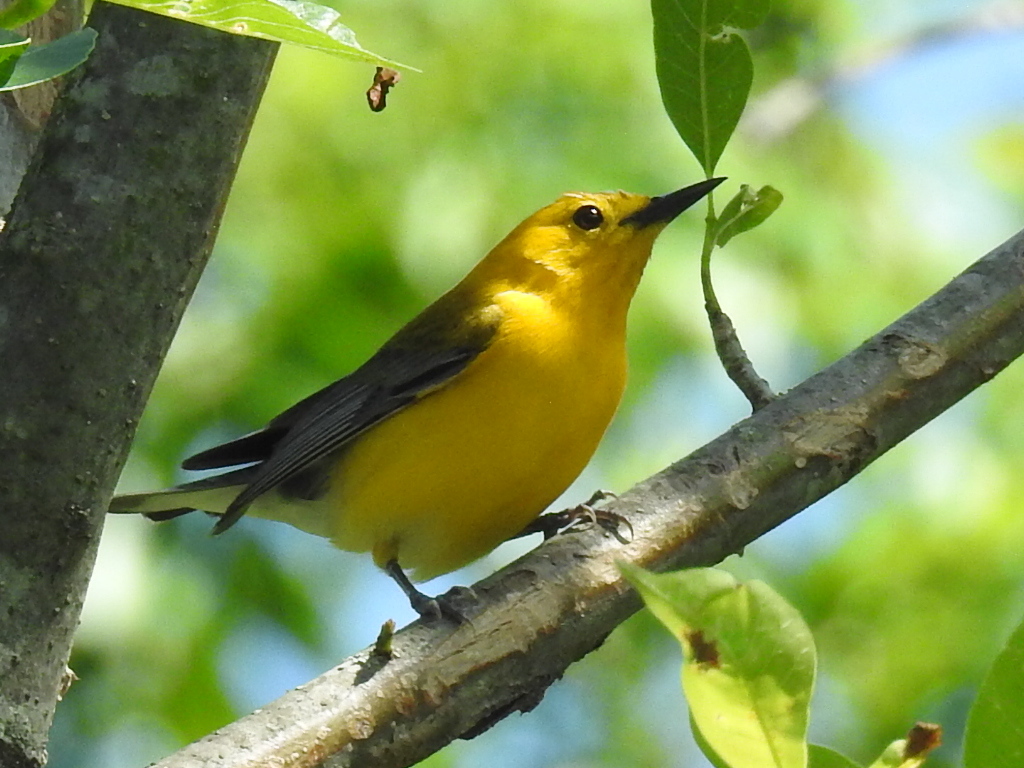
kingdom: Animalia
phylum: Chordata
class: Aves
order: Passeriformes
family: Parulidae
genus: Protonotaria
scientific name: Protonotaria citrea
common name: Prothonotary warbler
